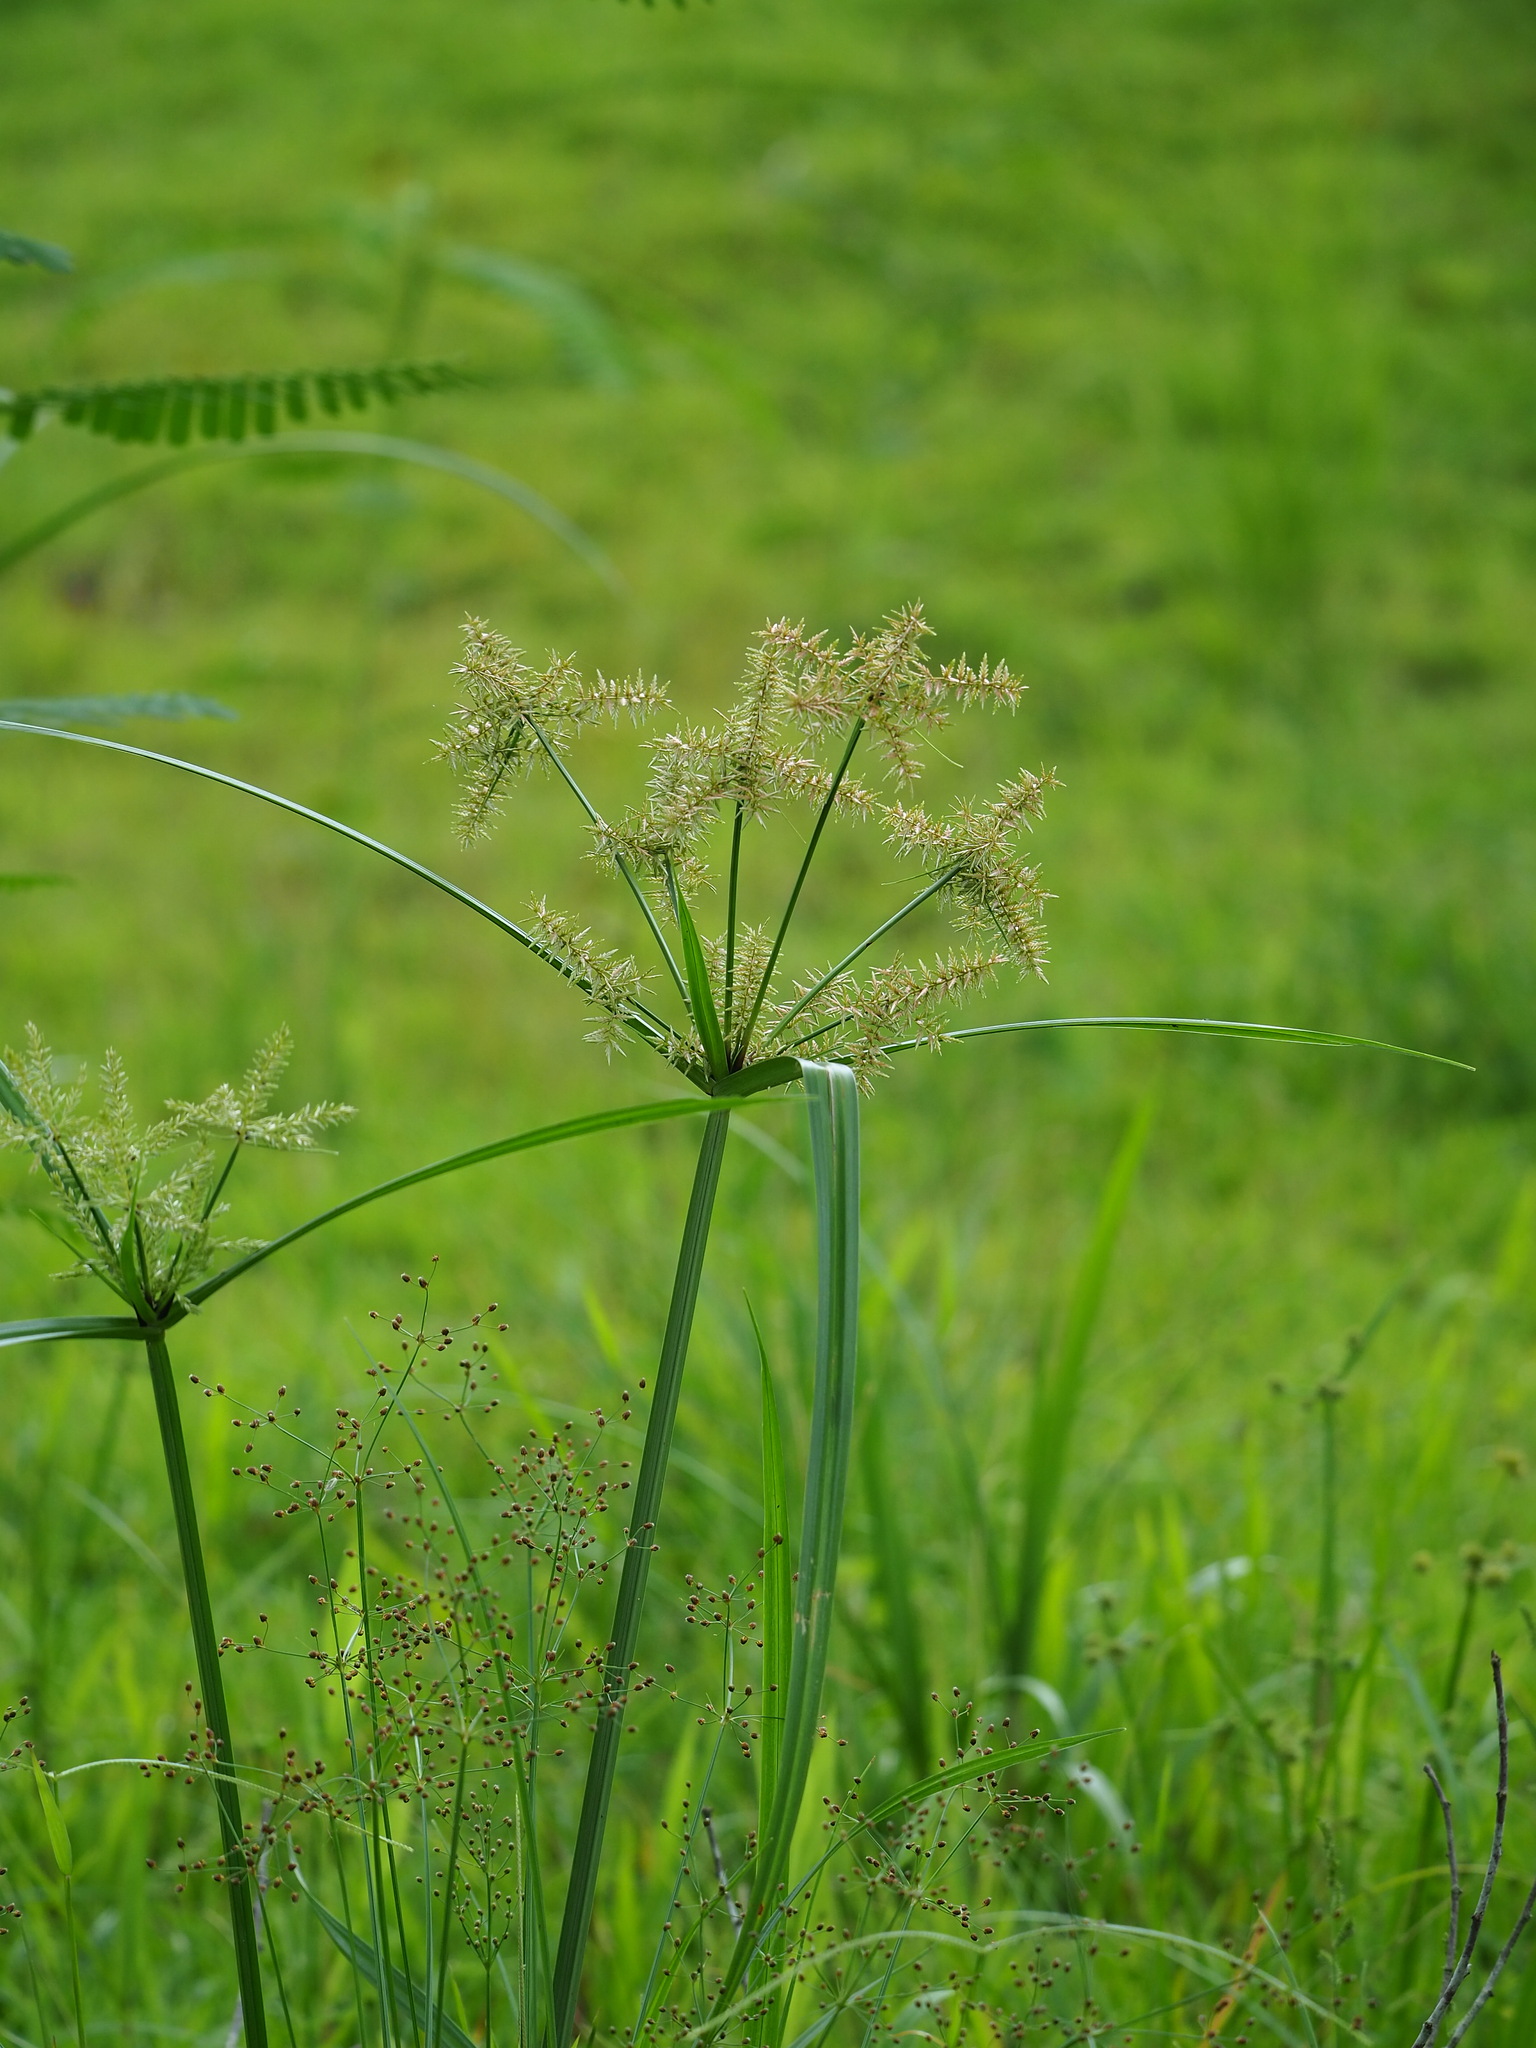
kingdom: Plantae
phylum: Tracheophyta
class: Liliopsida
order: Poales
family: Cyperaceae
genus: Cyperus
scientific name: Cyperus pilosus
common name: Fuzzy flatsedge
